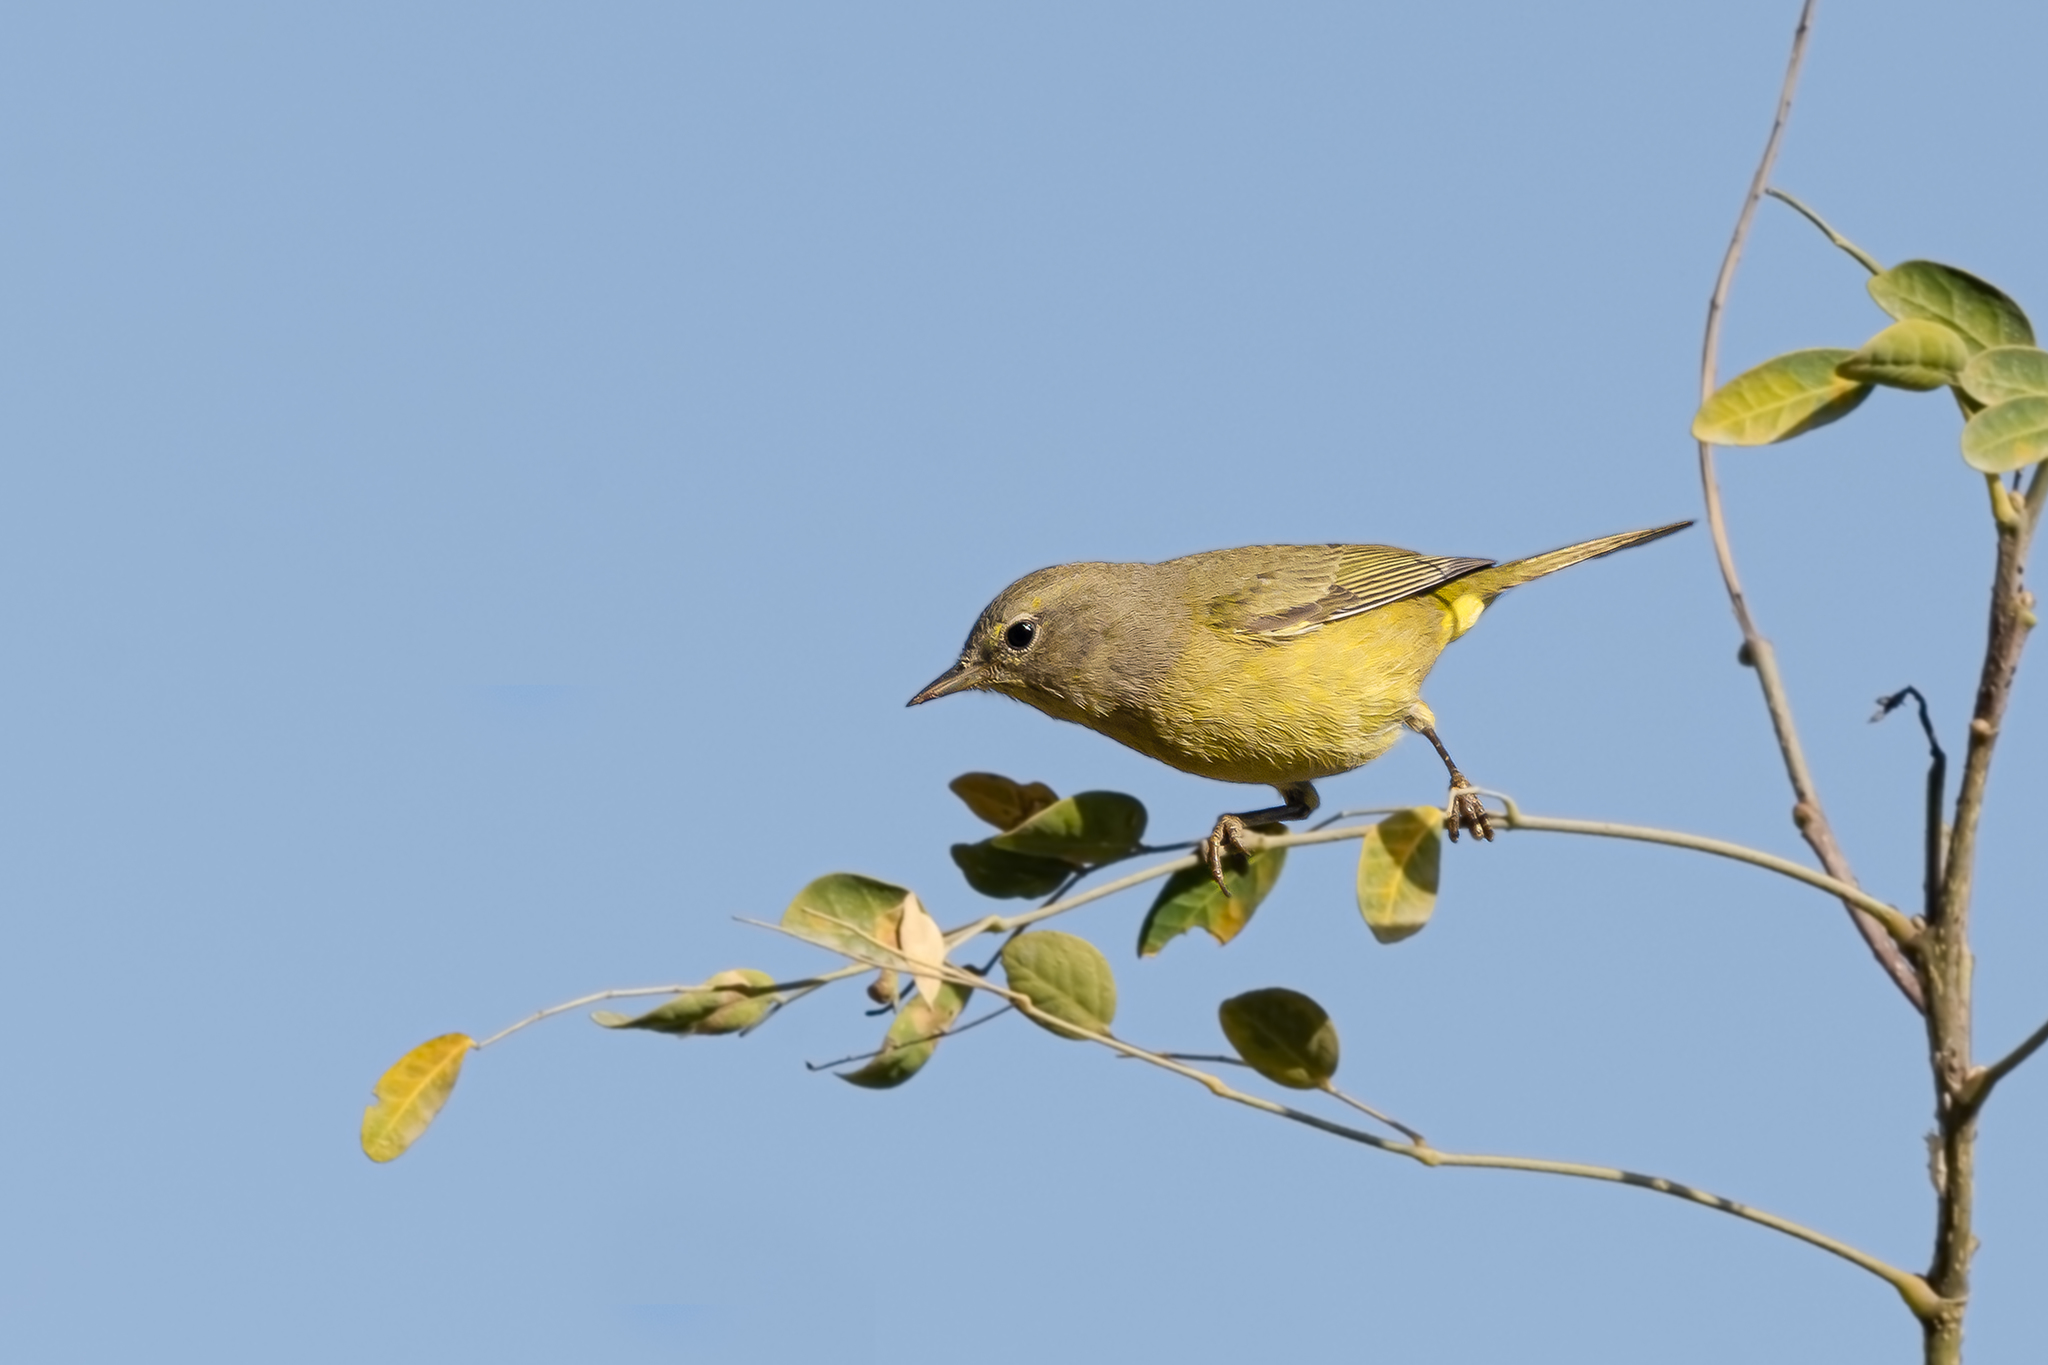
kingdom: Animalia
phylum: Chordata
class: Aves
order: Passeriformes
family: Parulidae
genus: Leiothlypis
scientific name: Leiothlypis celata
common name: Orange-crowned warbler
